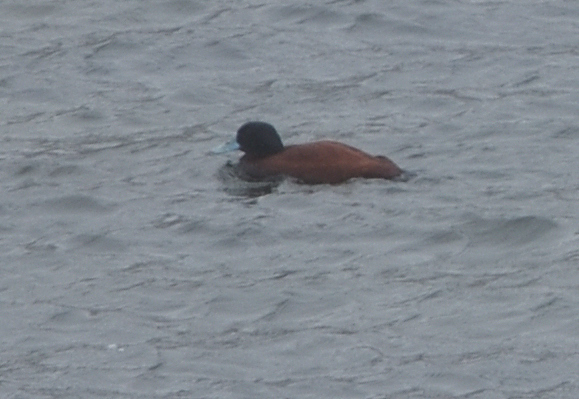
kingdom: Animalia
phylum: Chordata
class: Aves
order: Anseriformes
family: Anatidae
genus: Oxyura
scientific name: Oxyura ferruginea
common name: Andean duck
